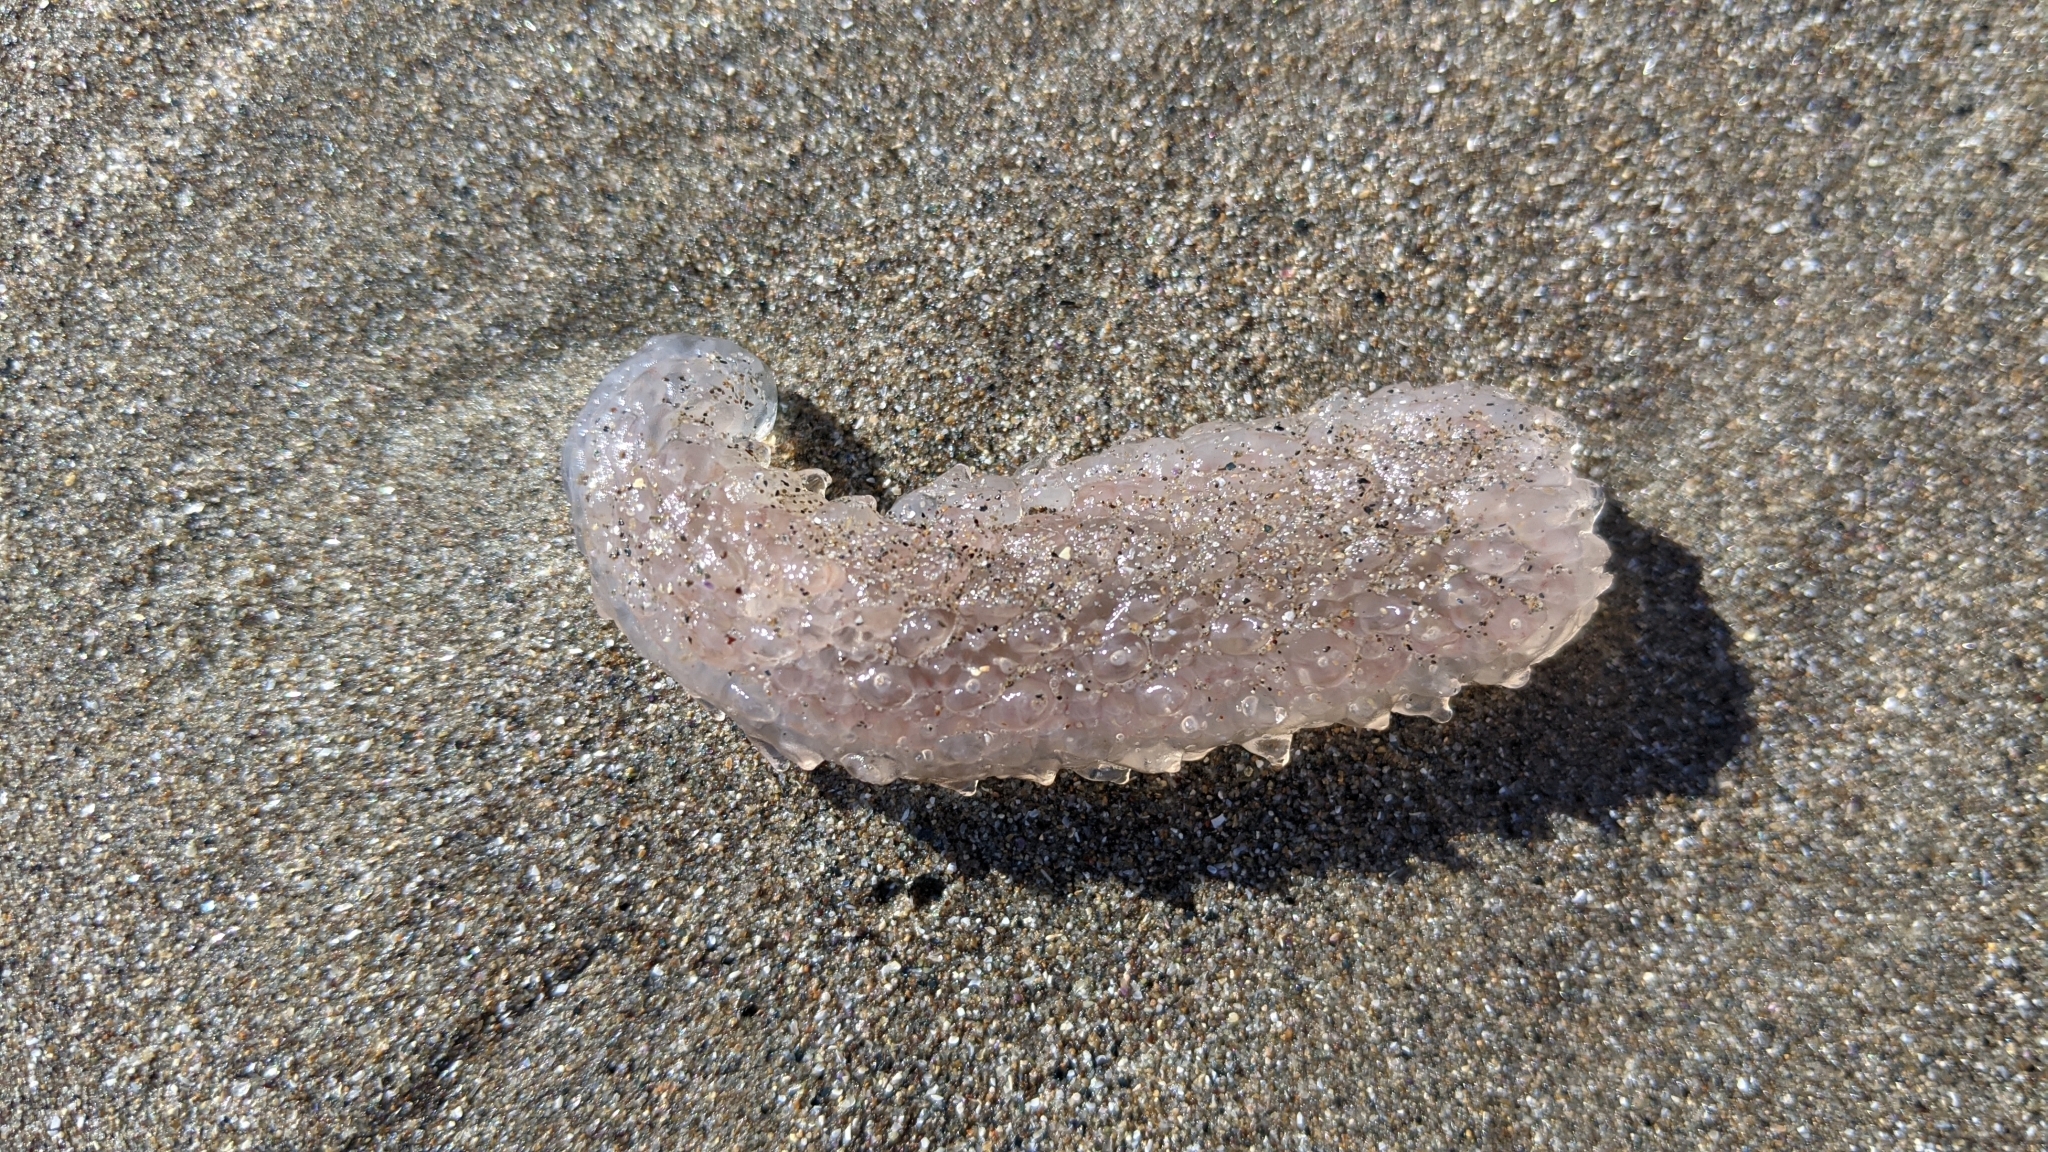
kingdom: Animalia
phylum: Chordata
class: Thaliacea
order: Pyrosomatida
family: Pyrosomatidae
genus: Pyrosoma
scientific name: Pyrosoma atlanticum
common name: Atlantic pyrosomes
